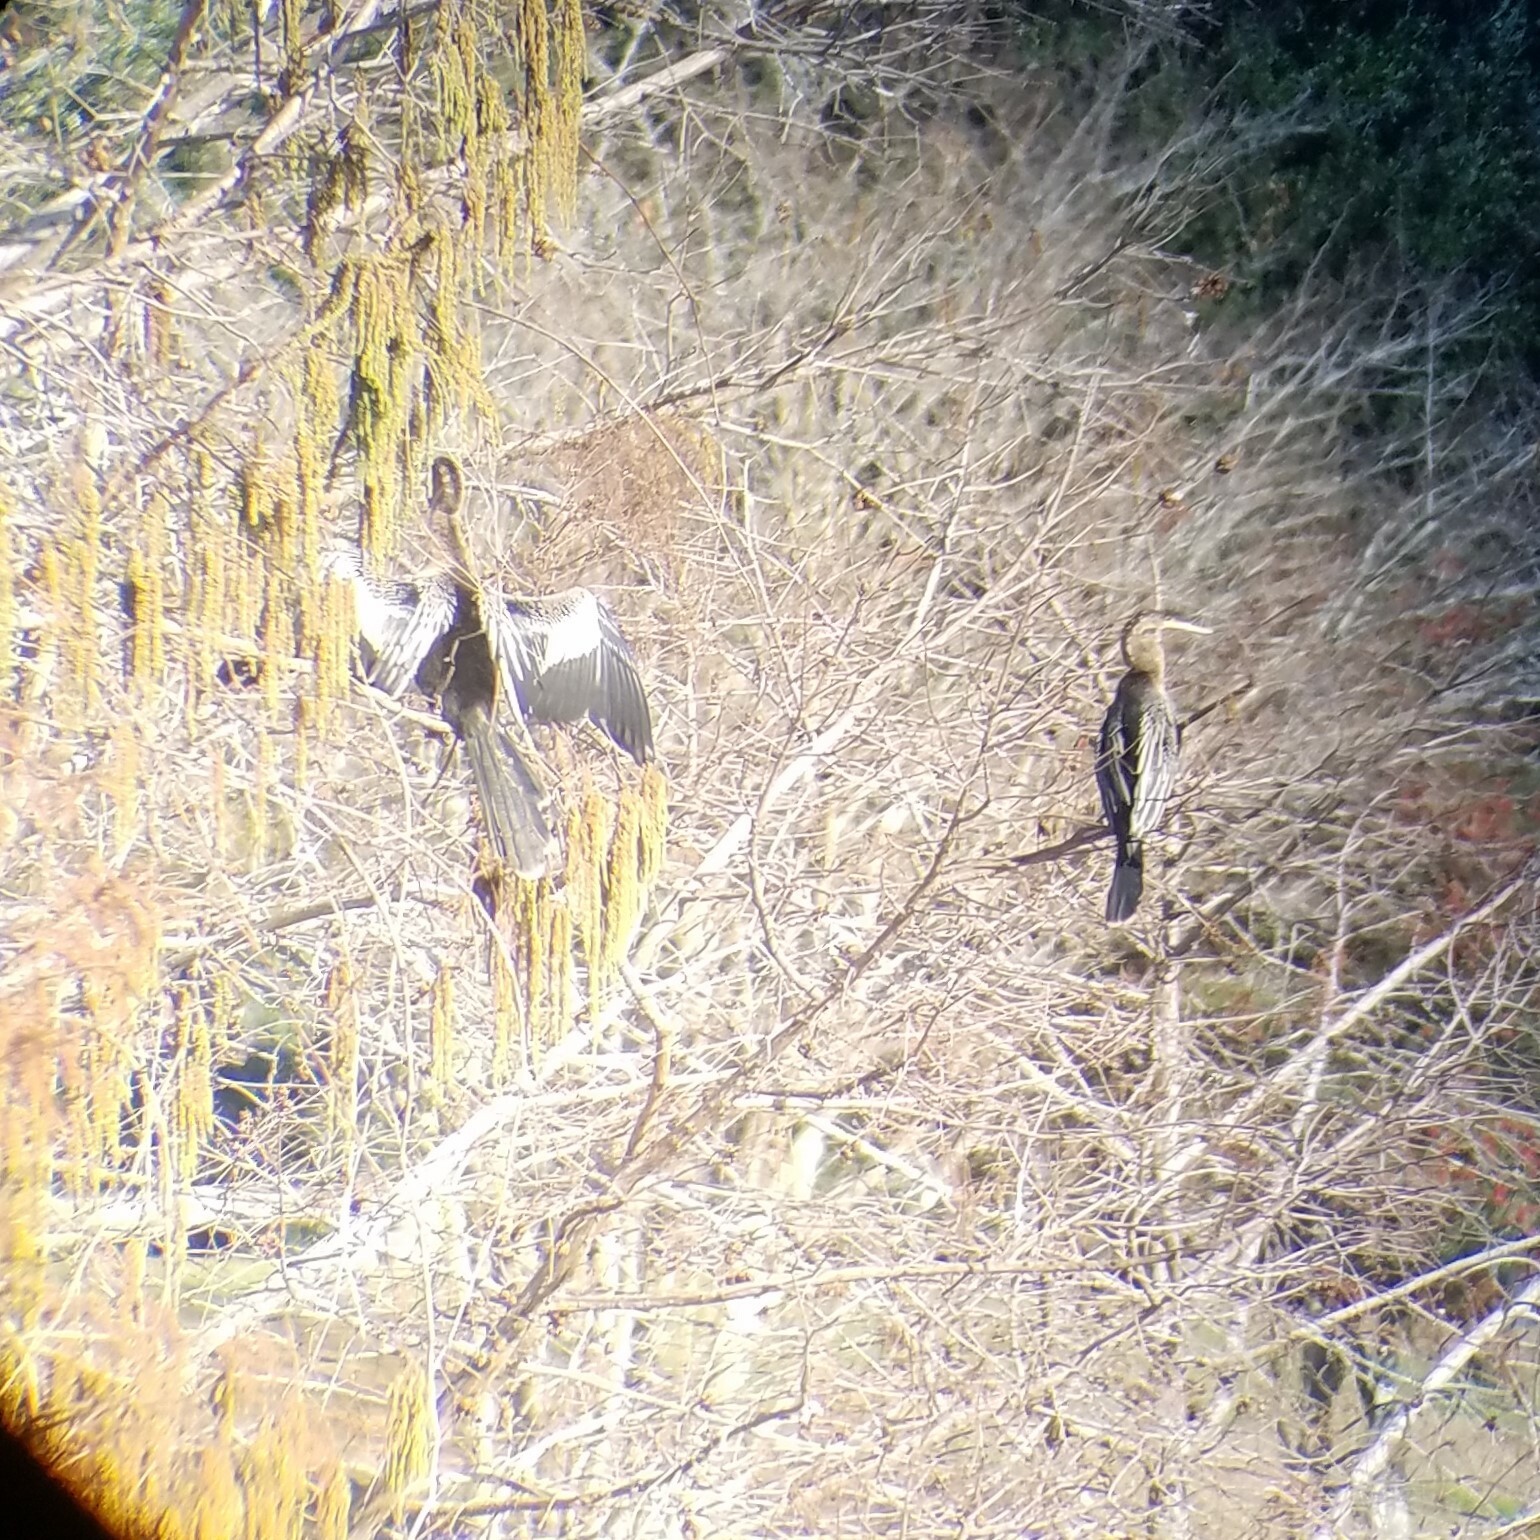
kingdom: Animalia
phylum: Chordata
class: Aves
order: Suliformes
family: Anhingidae
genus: Anhinga
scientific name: Anhinga anhinga
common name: Anhinga
